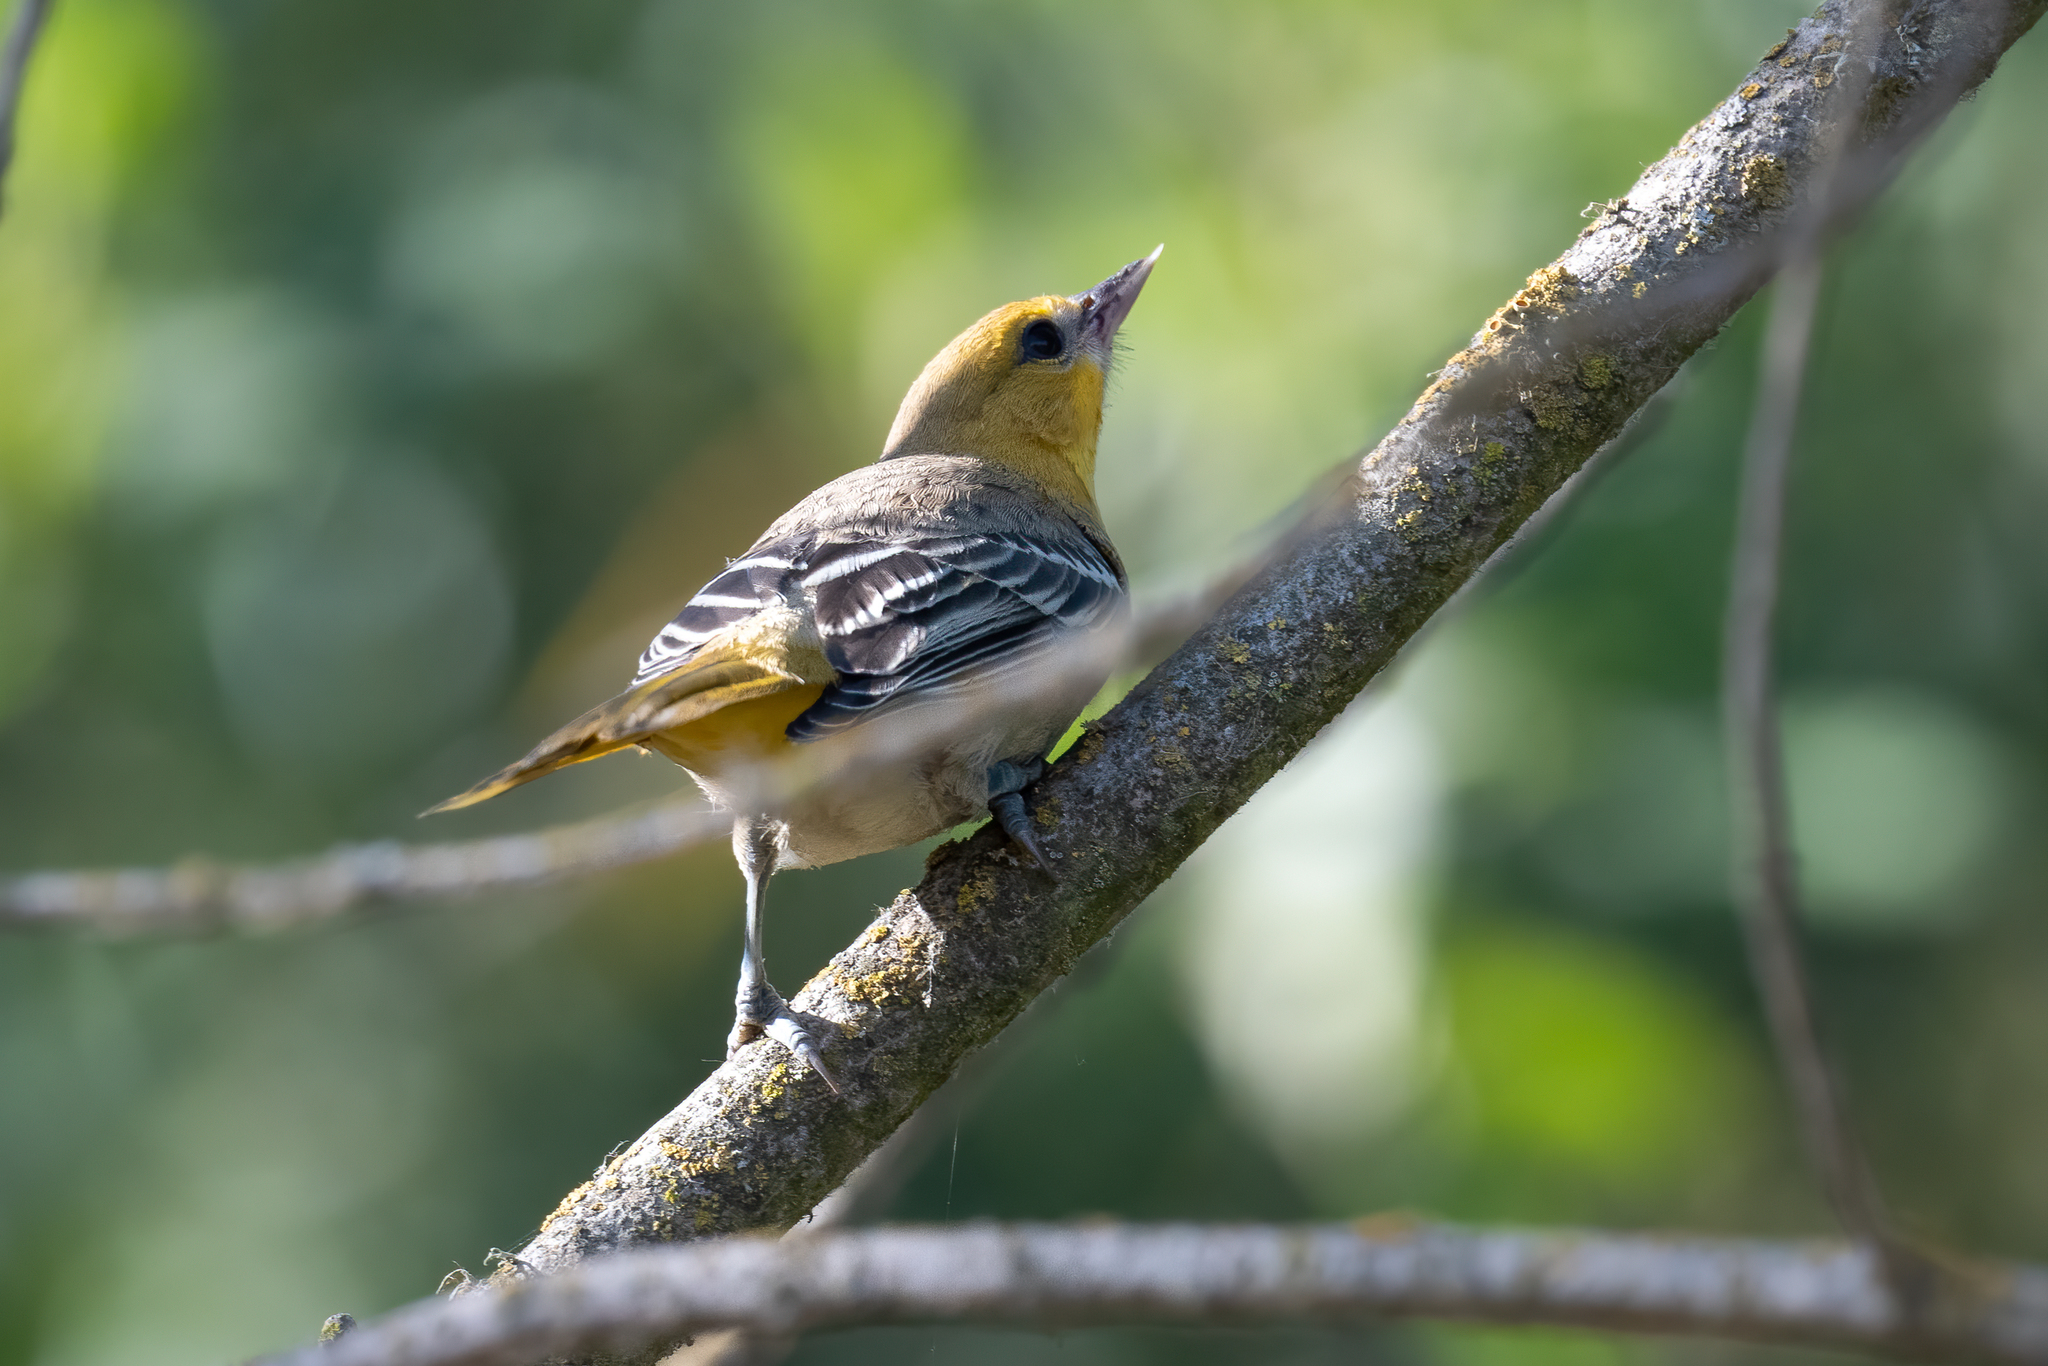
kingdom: Animalia
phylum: Chordata
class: Aves
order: Passeriformes
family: Icteridae
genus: Icterus
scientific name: Icterus bullockii
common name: Bullock's oriole
